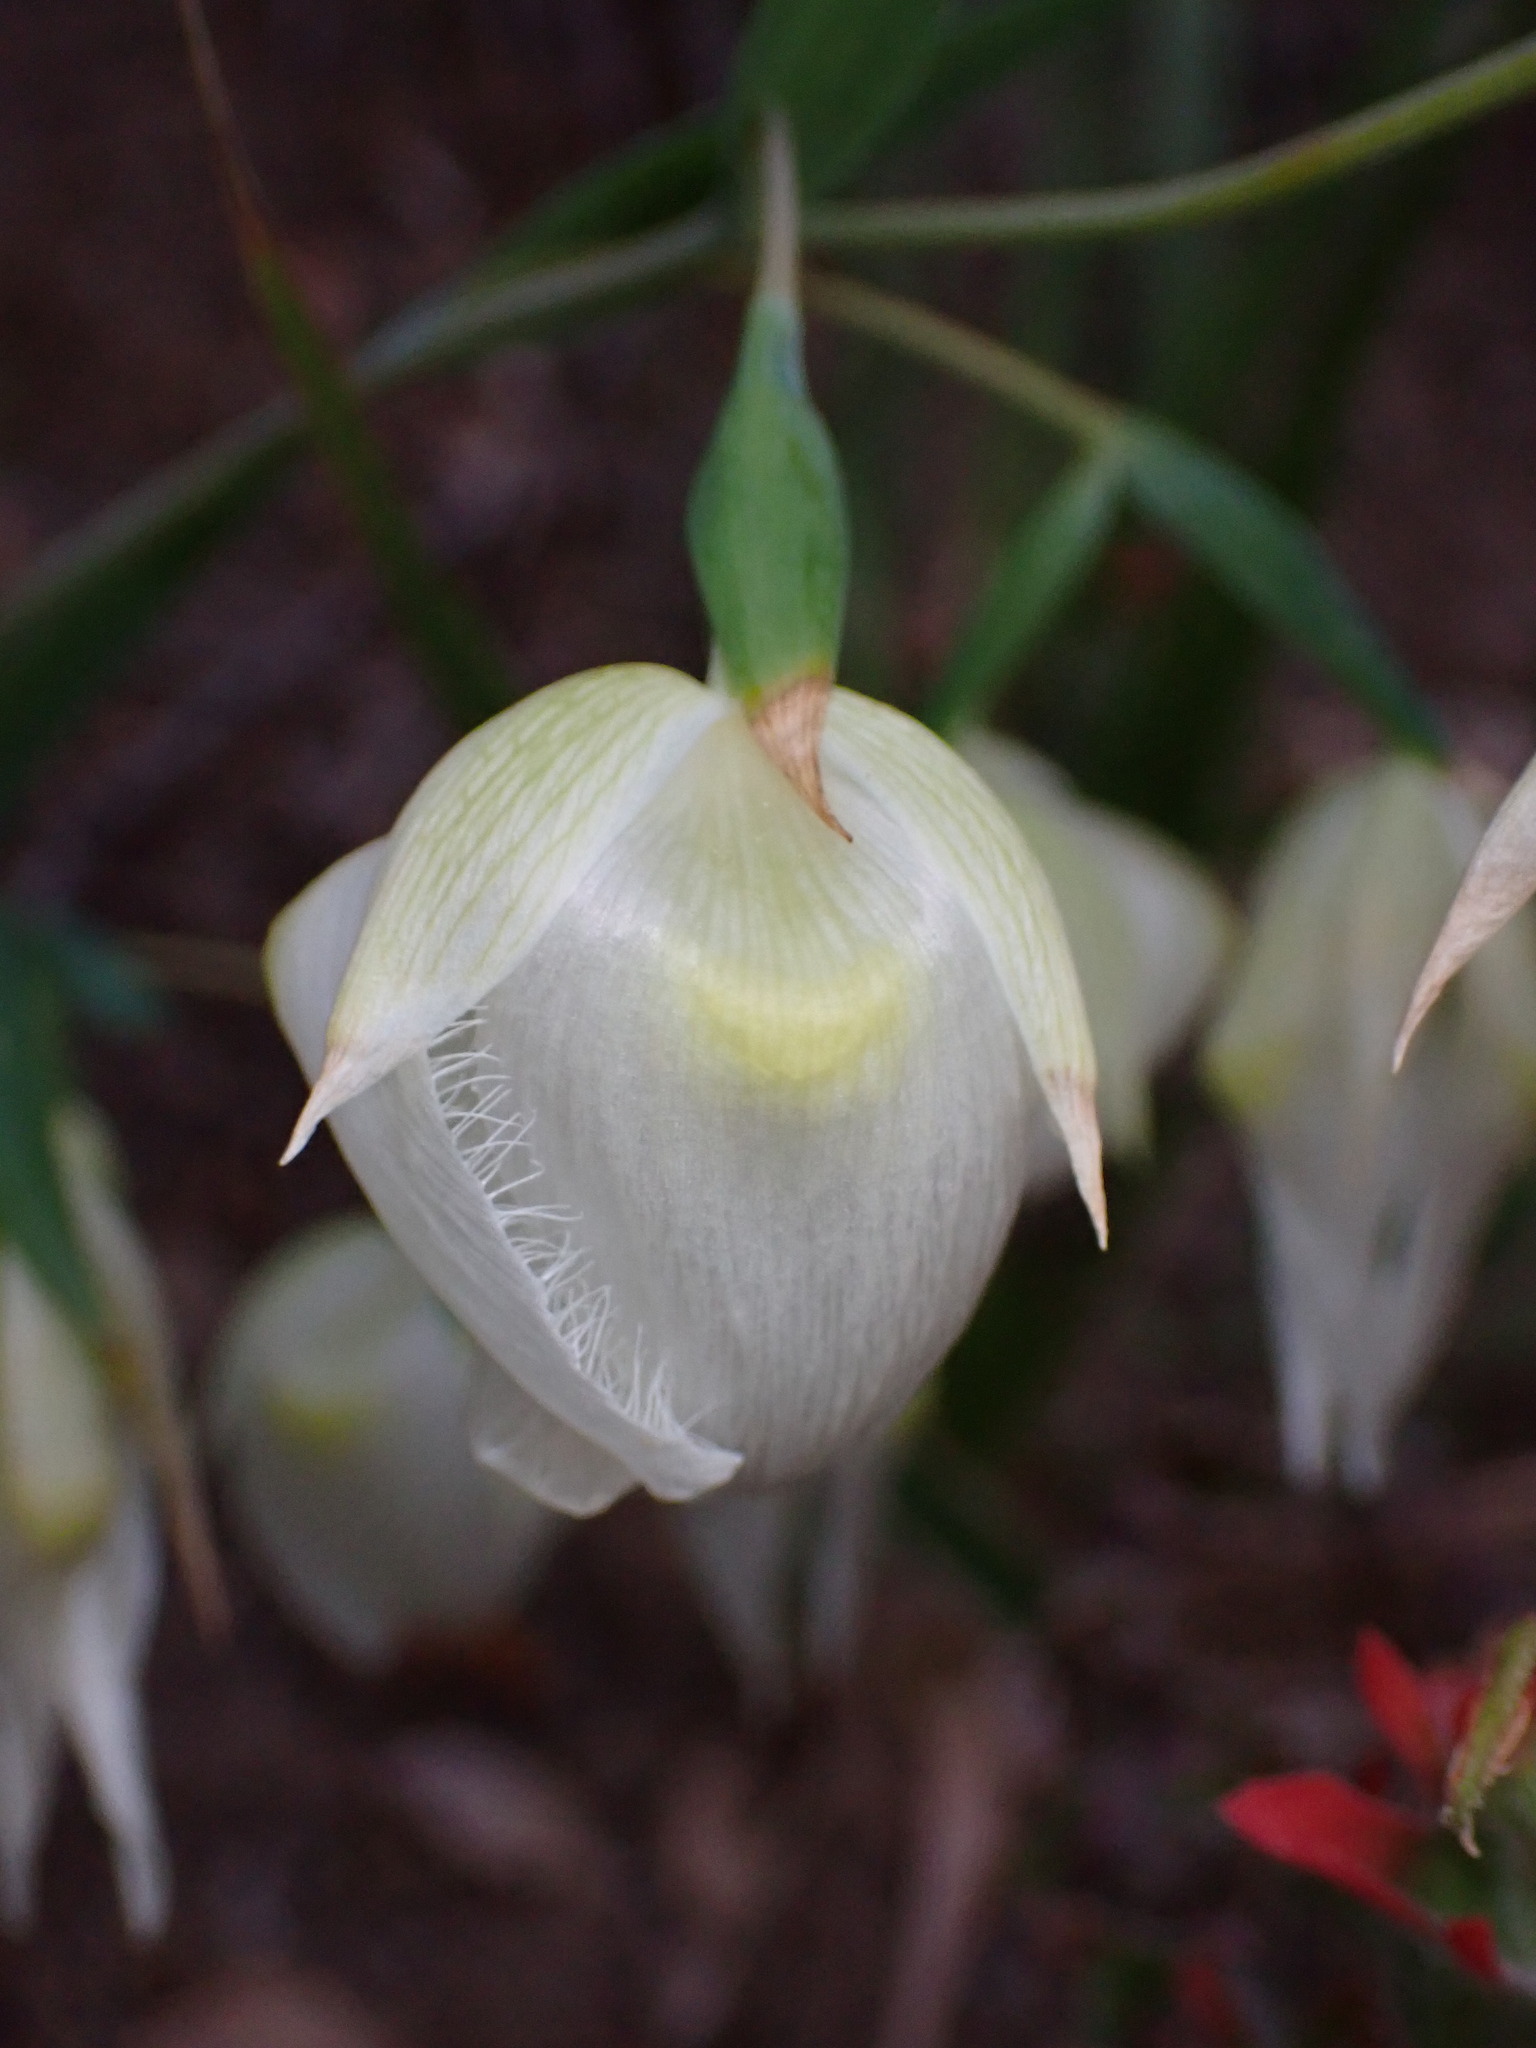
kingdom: Plantae
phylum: Tracheophyta
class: Liliopsida
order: Liliales
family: Liliaceae
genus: Calochortus
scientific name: Calochortus albus
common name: Fairy-lantern
